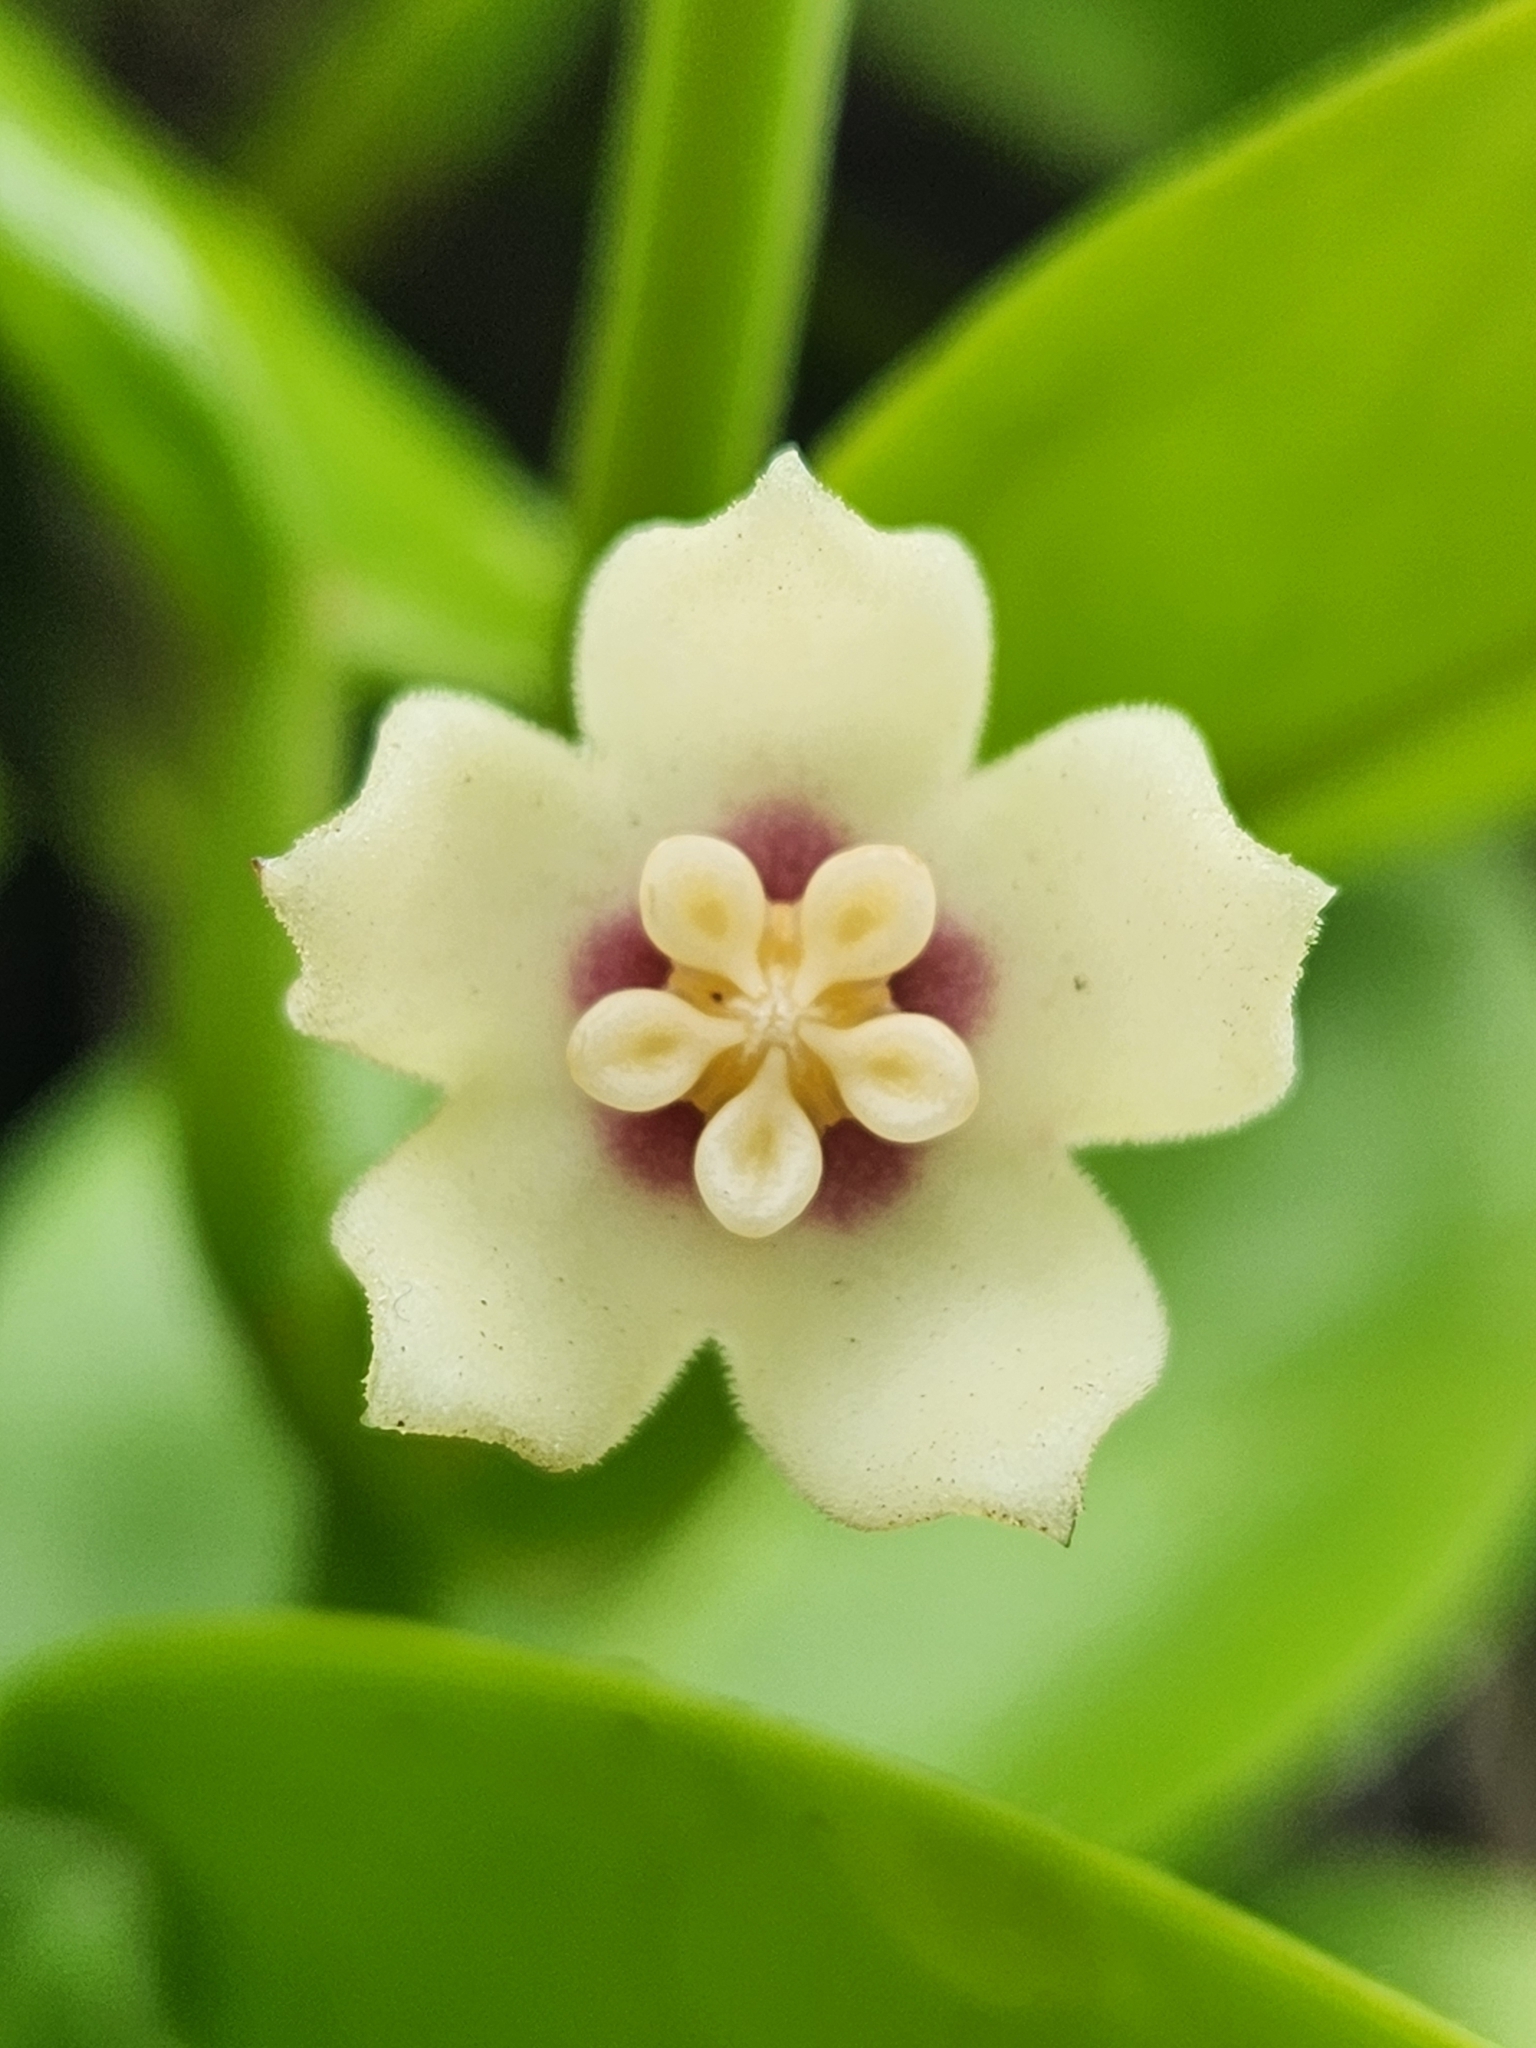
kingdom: Plantae
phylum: Tracheophyta
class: Magnoliopsida
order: Gentianales
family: Apocynaceae
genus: Hoya
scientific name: Hoya australis
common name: Wax flower
